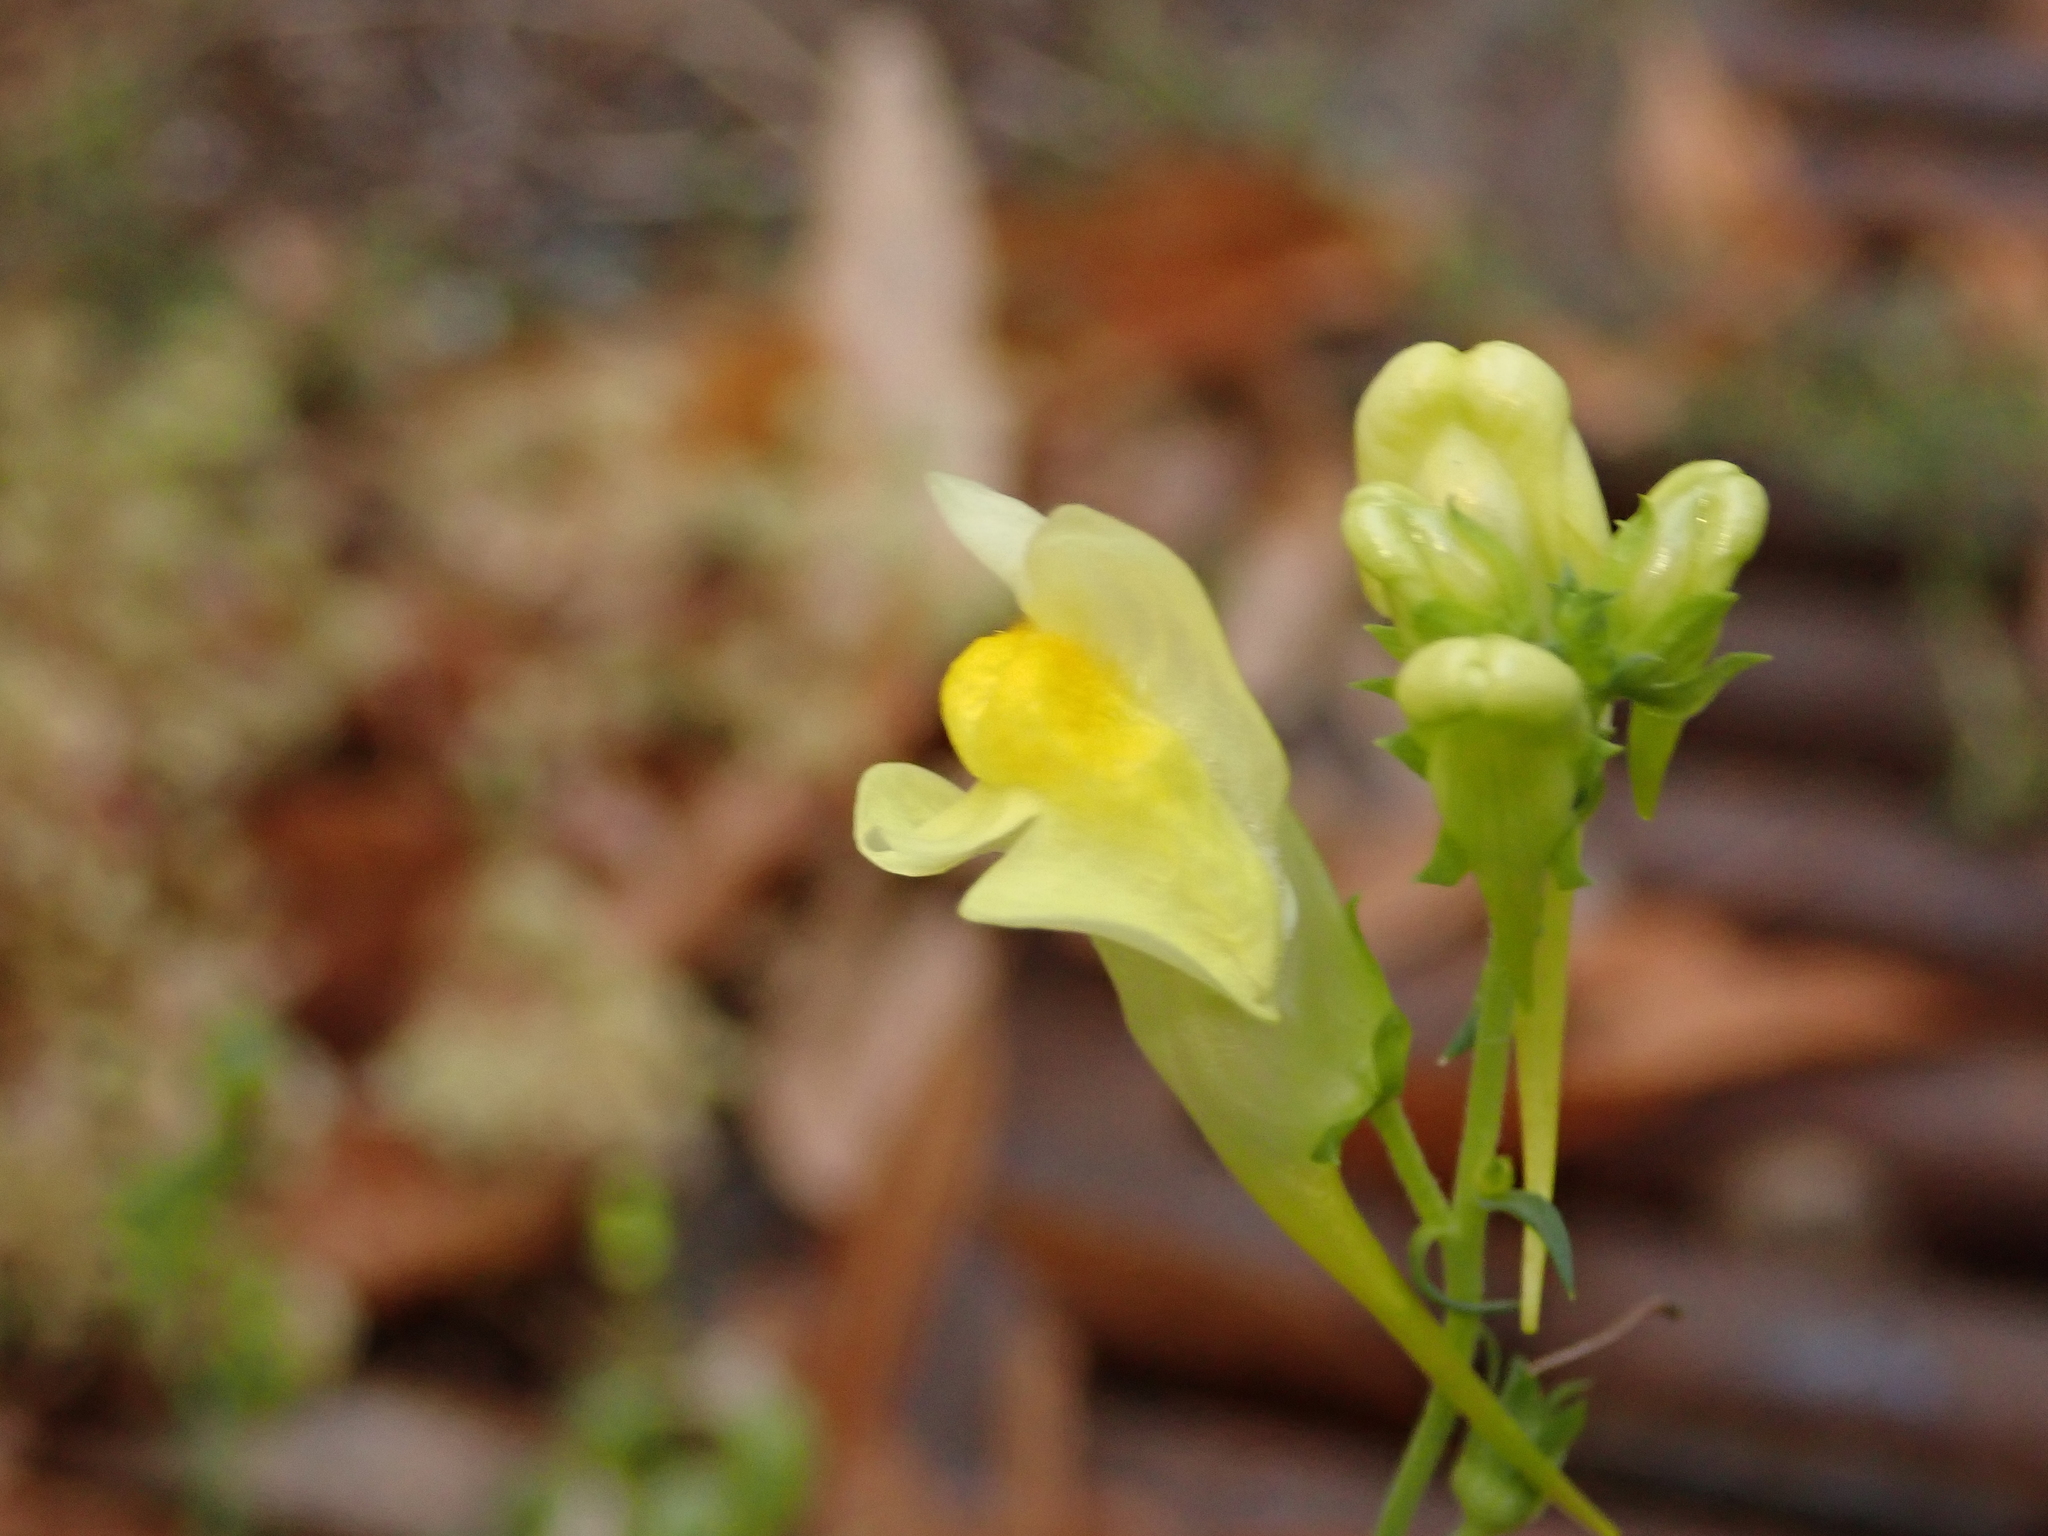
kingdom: Plantae
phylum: Tracheophyta
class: Magnoliopsida
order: Lamiales
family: Plantaginaceae
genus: Linaria
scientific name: Linaria vulgaris
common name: Butter and eggs
